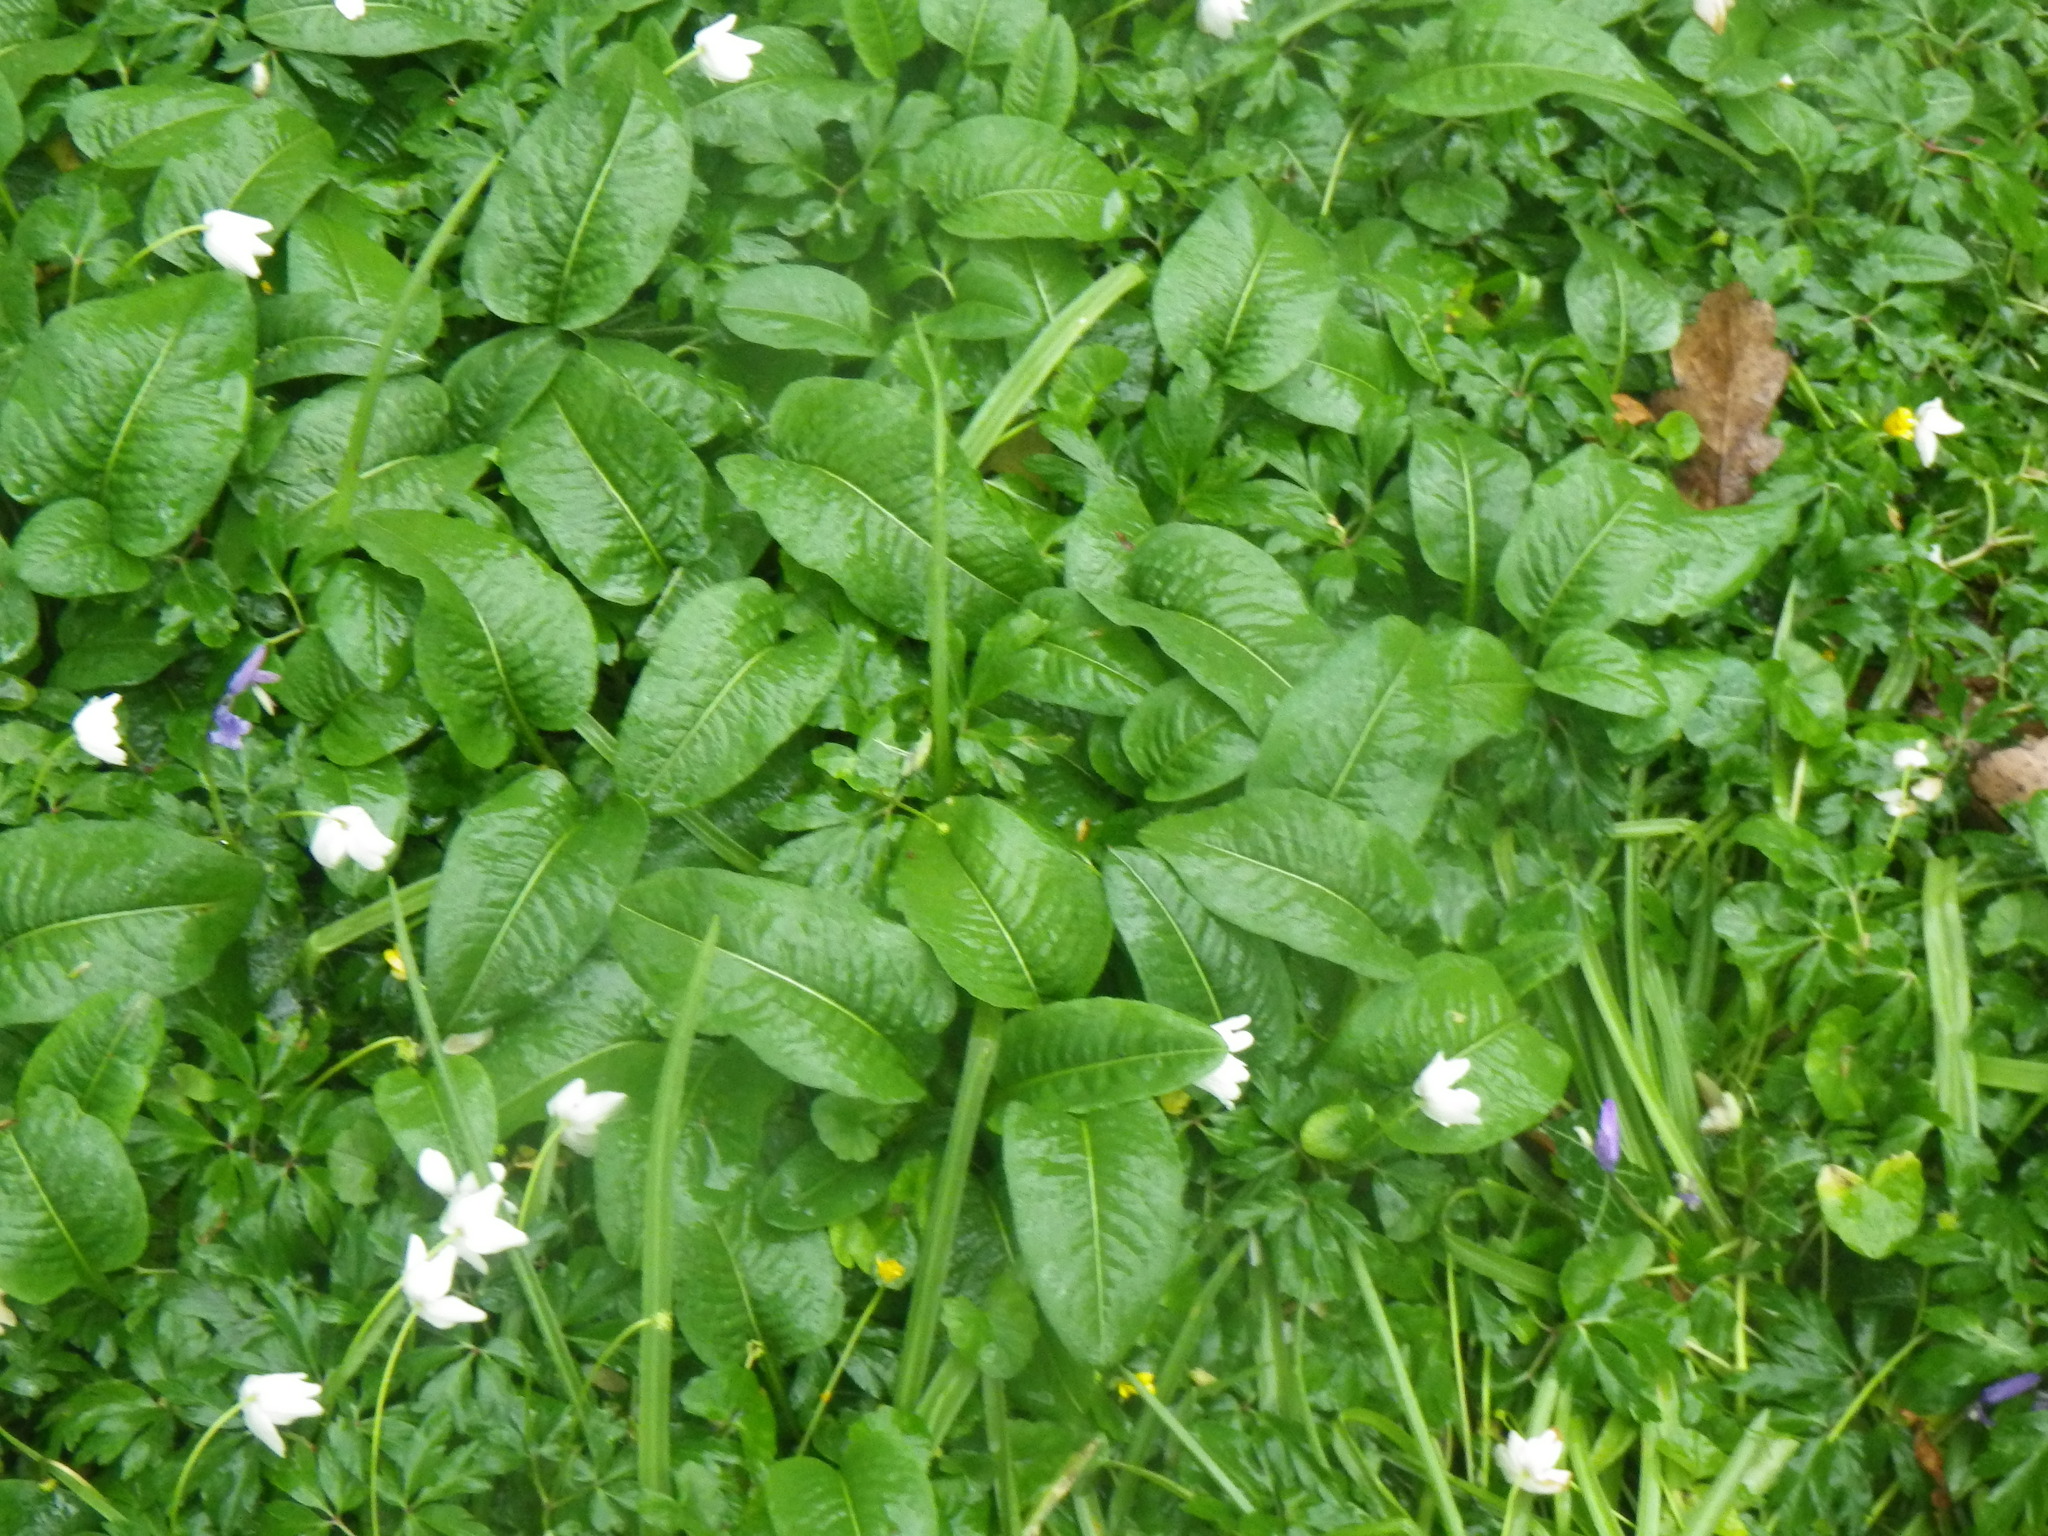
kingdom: Plantae
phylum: Tracheophyta
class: Magnoliopsida
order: Caryophyllales
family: Polygonaceae
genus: Bistorta
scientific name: Bistorta officinalis
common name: Common bistort
